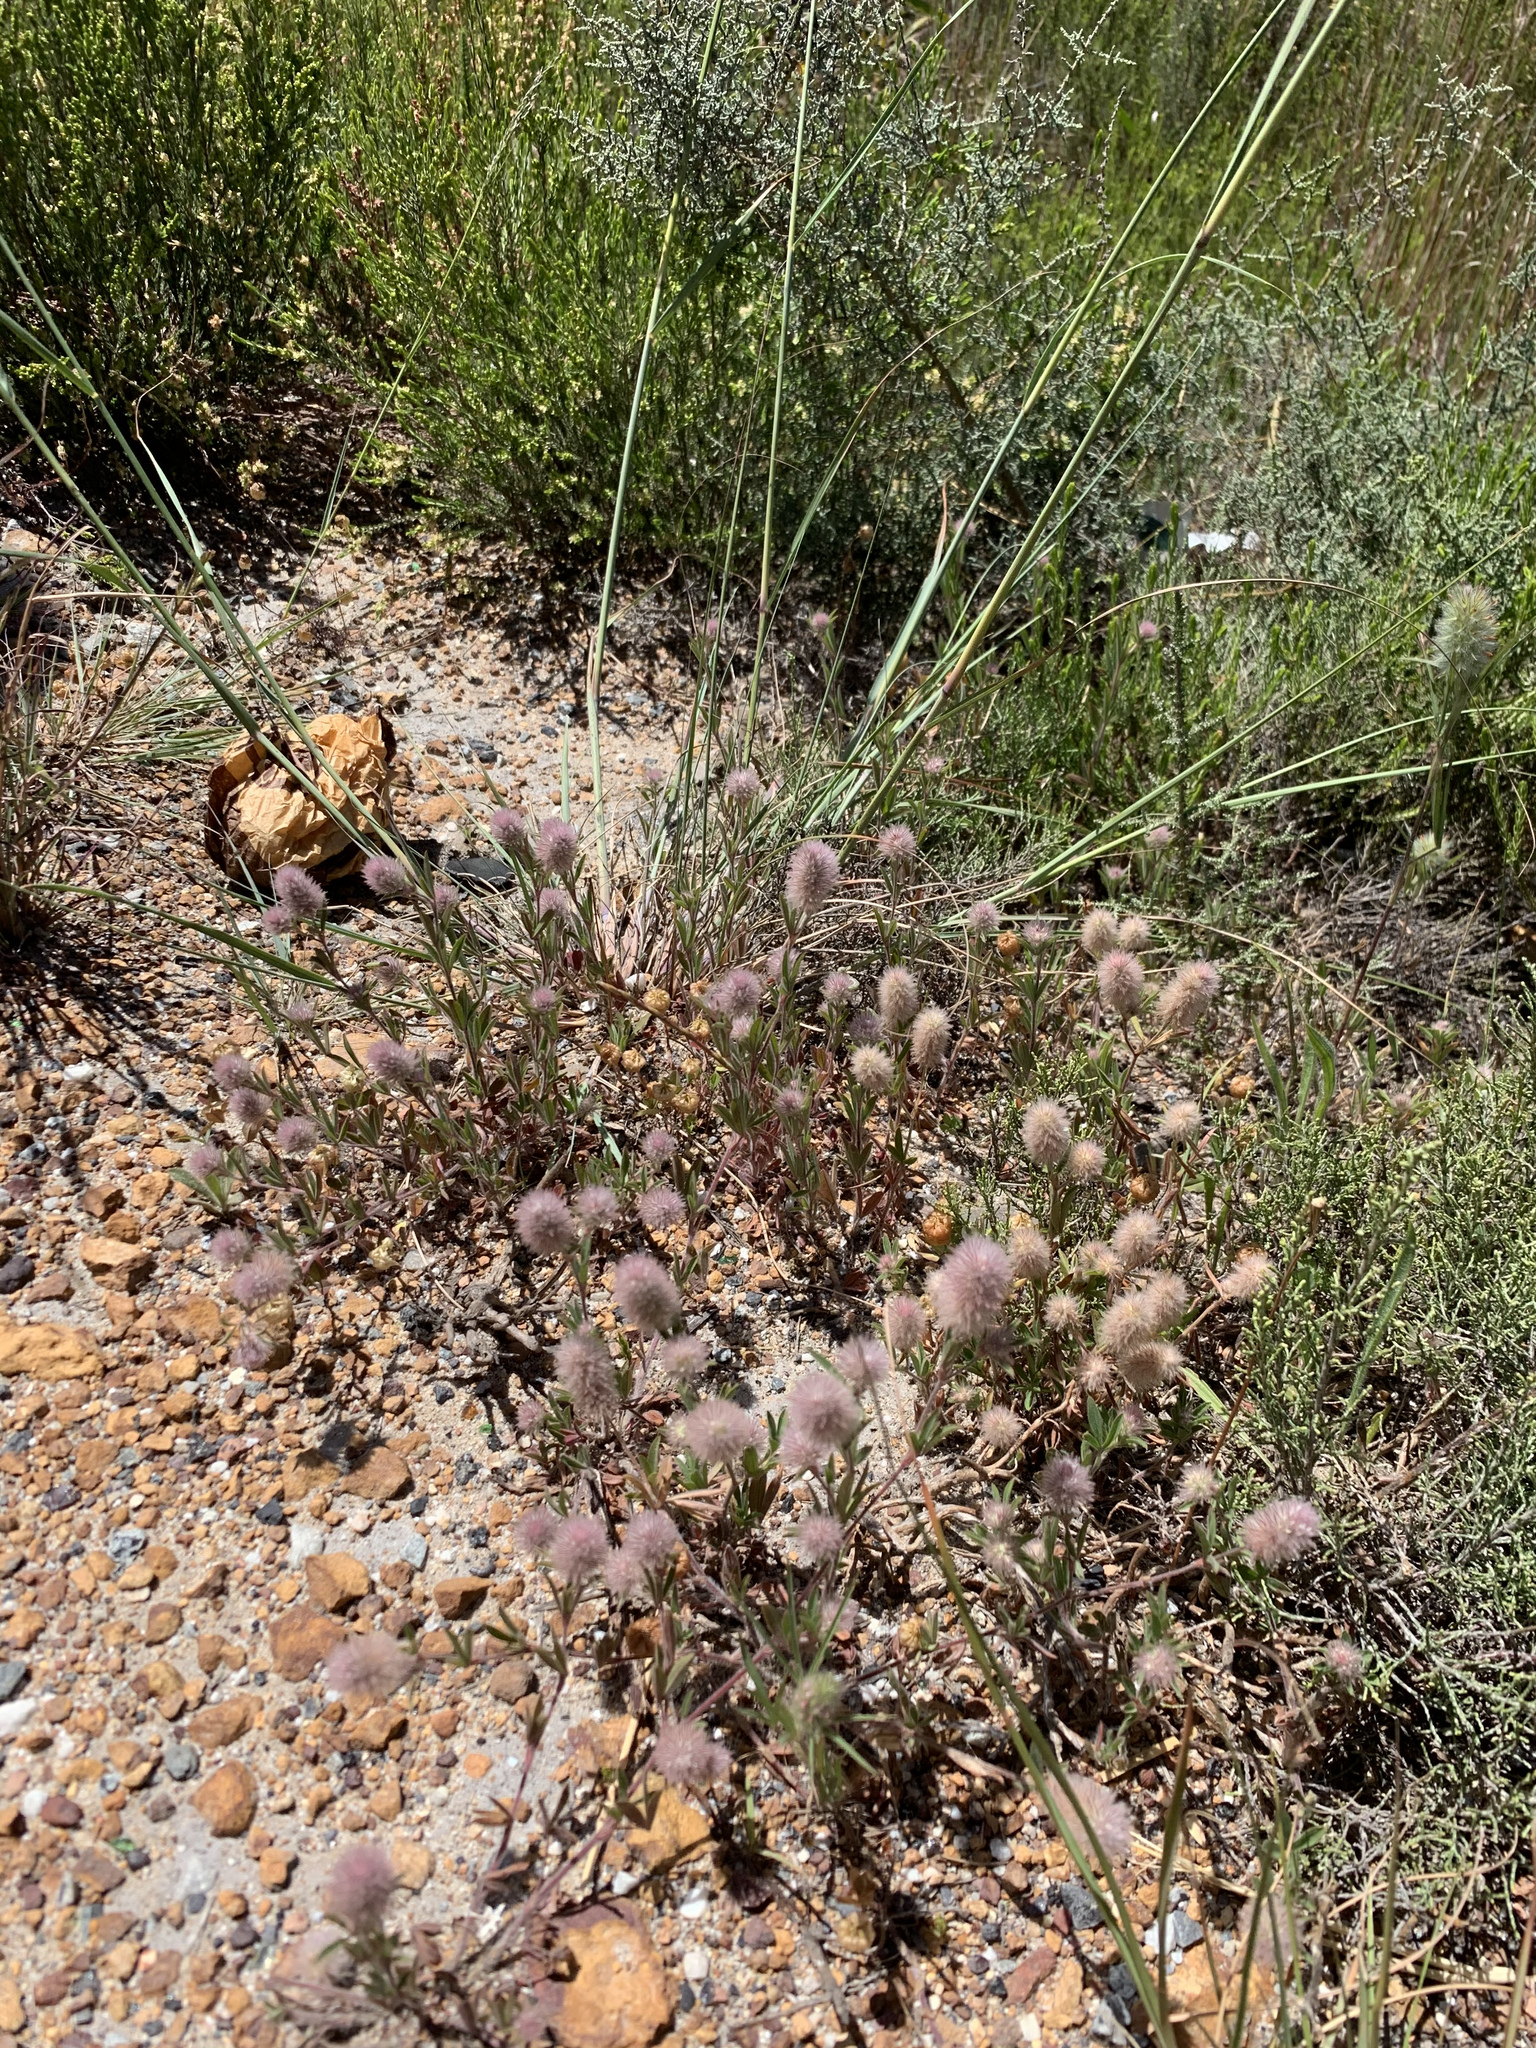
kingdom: Plantae
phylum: Tracheophyta
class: Magnoliopsida
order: Fabales
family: Fabaceae
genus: Trifolium
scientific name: Trifolium arvense
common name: Hare's-foot clover
